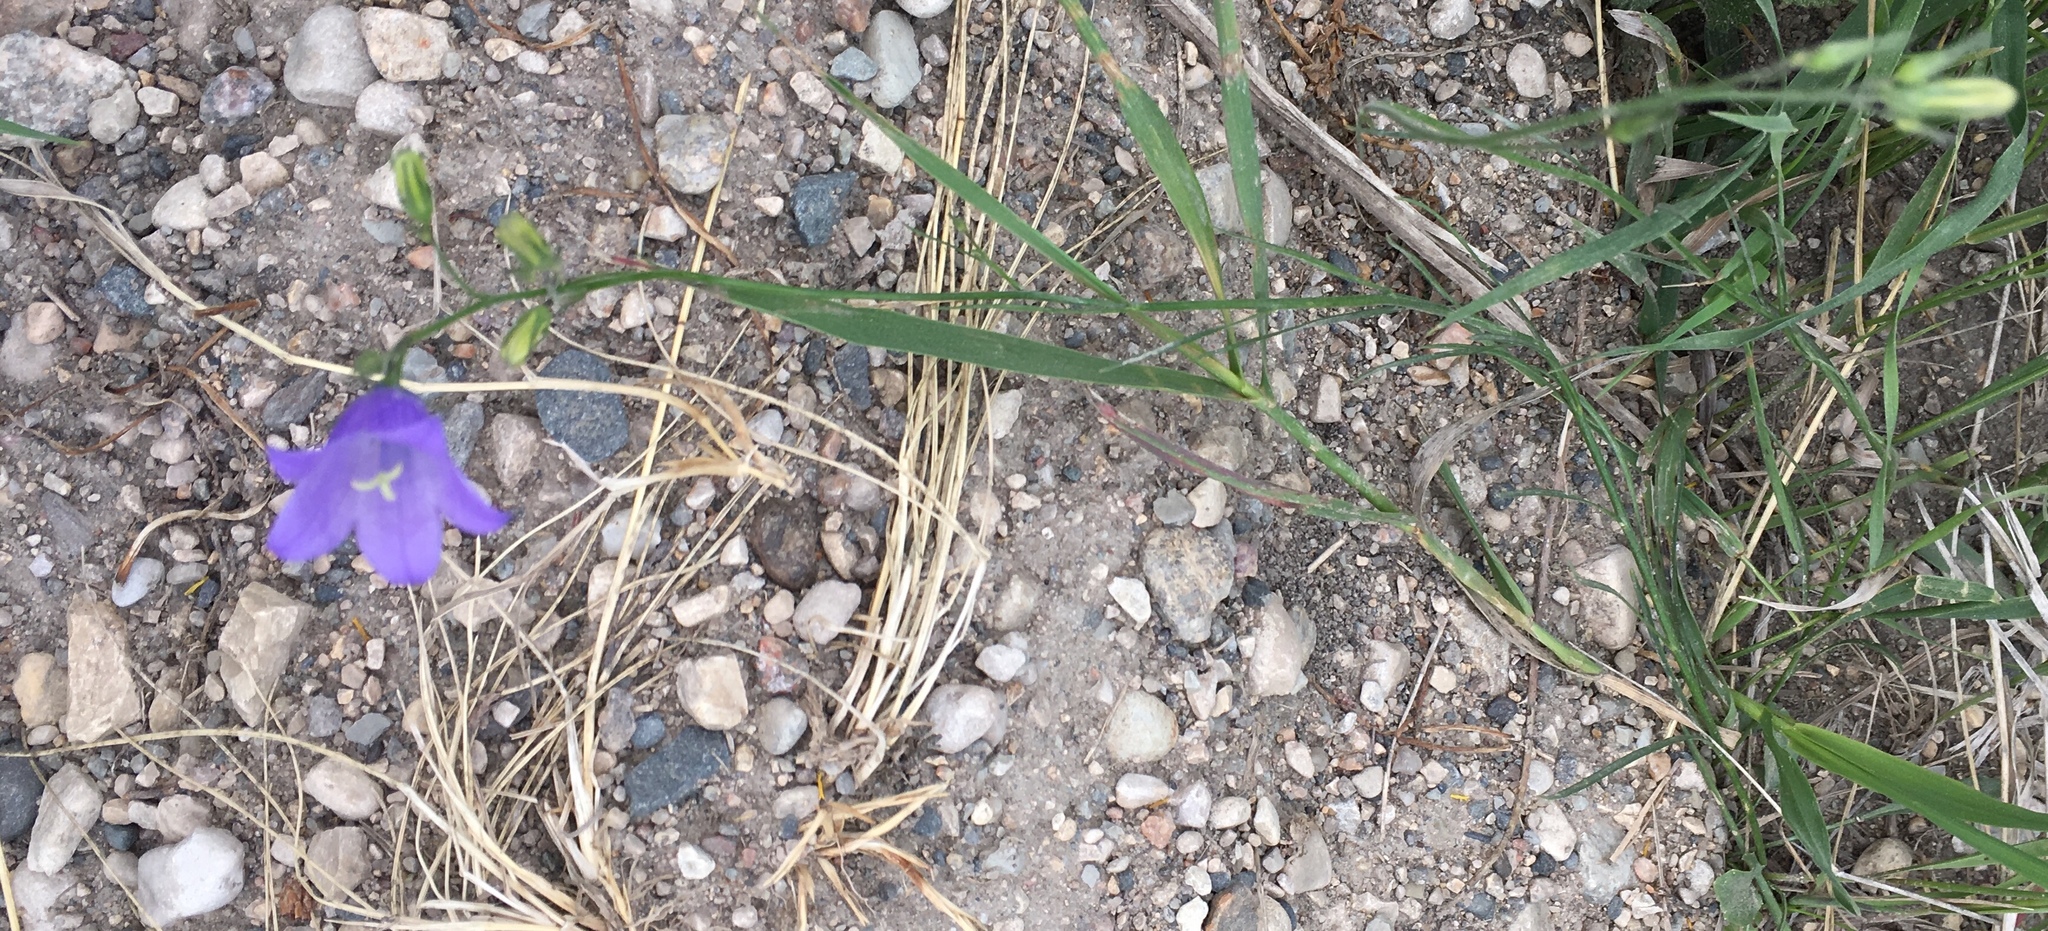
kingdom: Plantae
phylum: Tracheophyta
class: Magnoliopsida
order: Asterales
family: Campanulaceae
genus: Campanula
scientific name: Campanula petiolata
